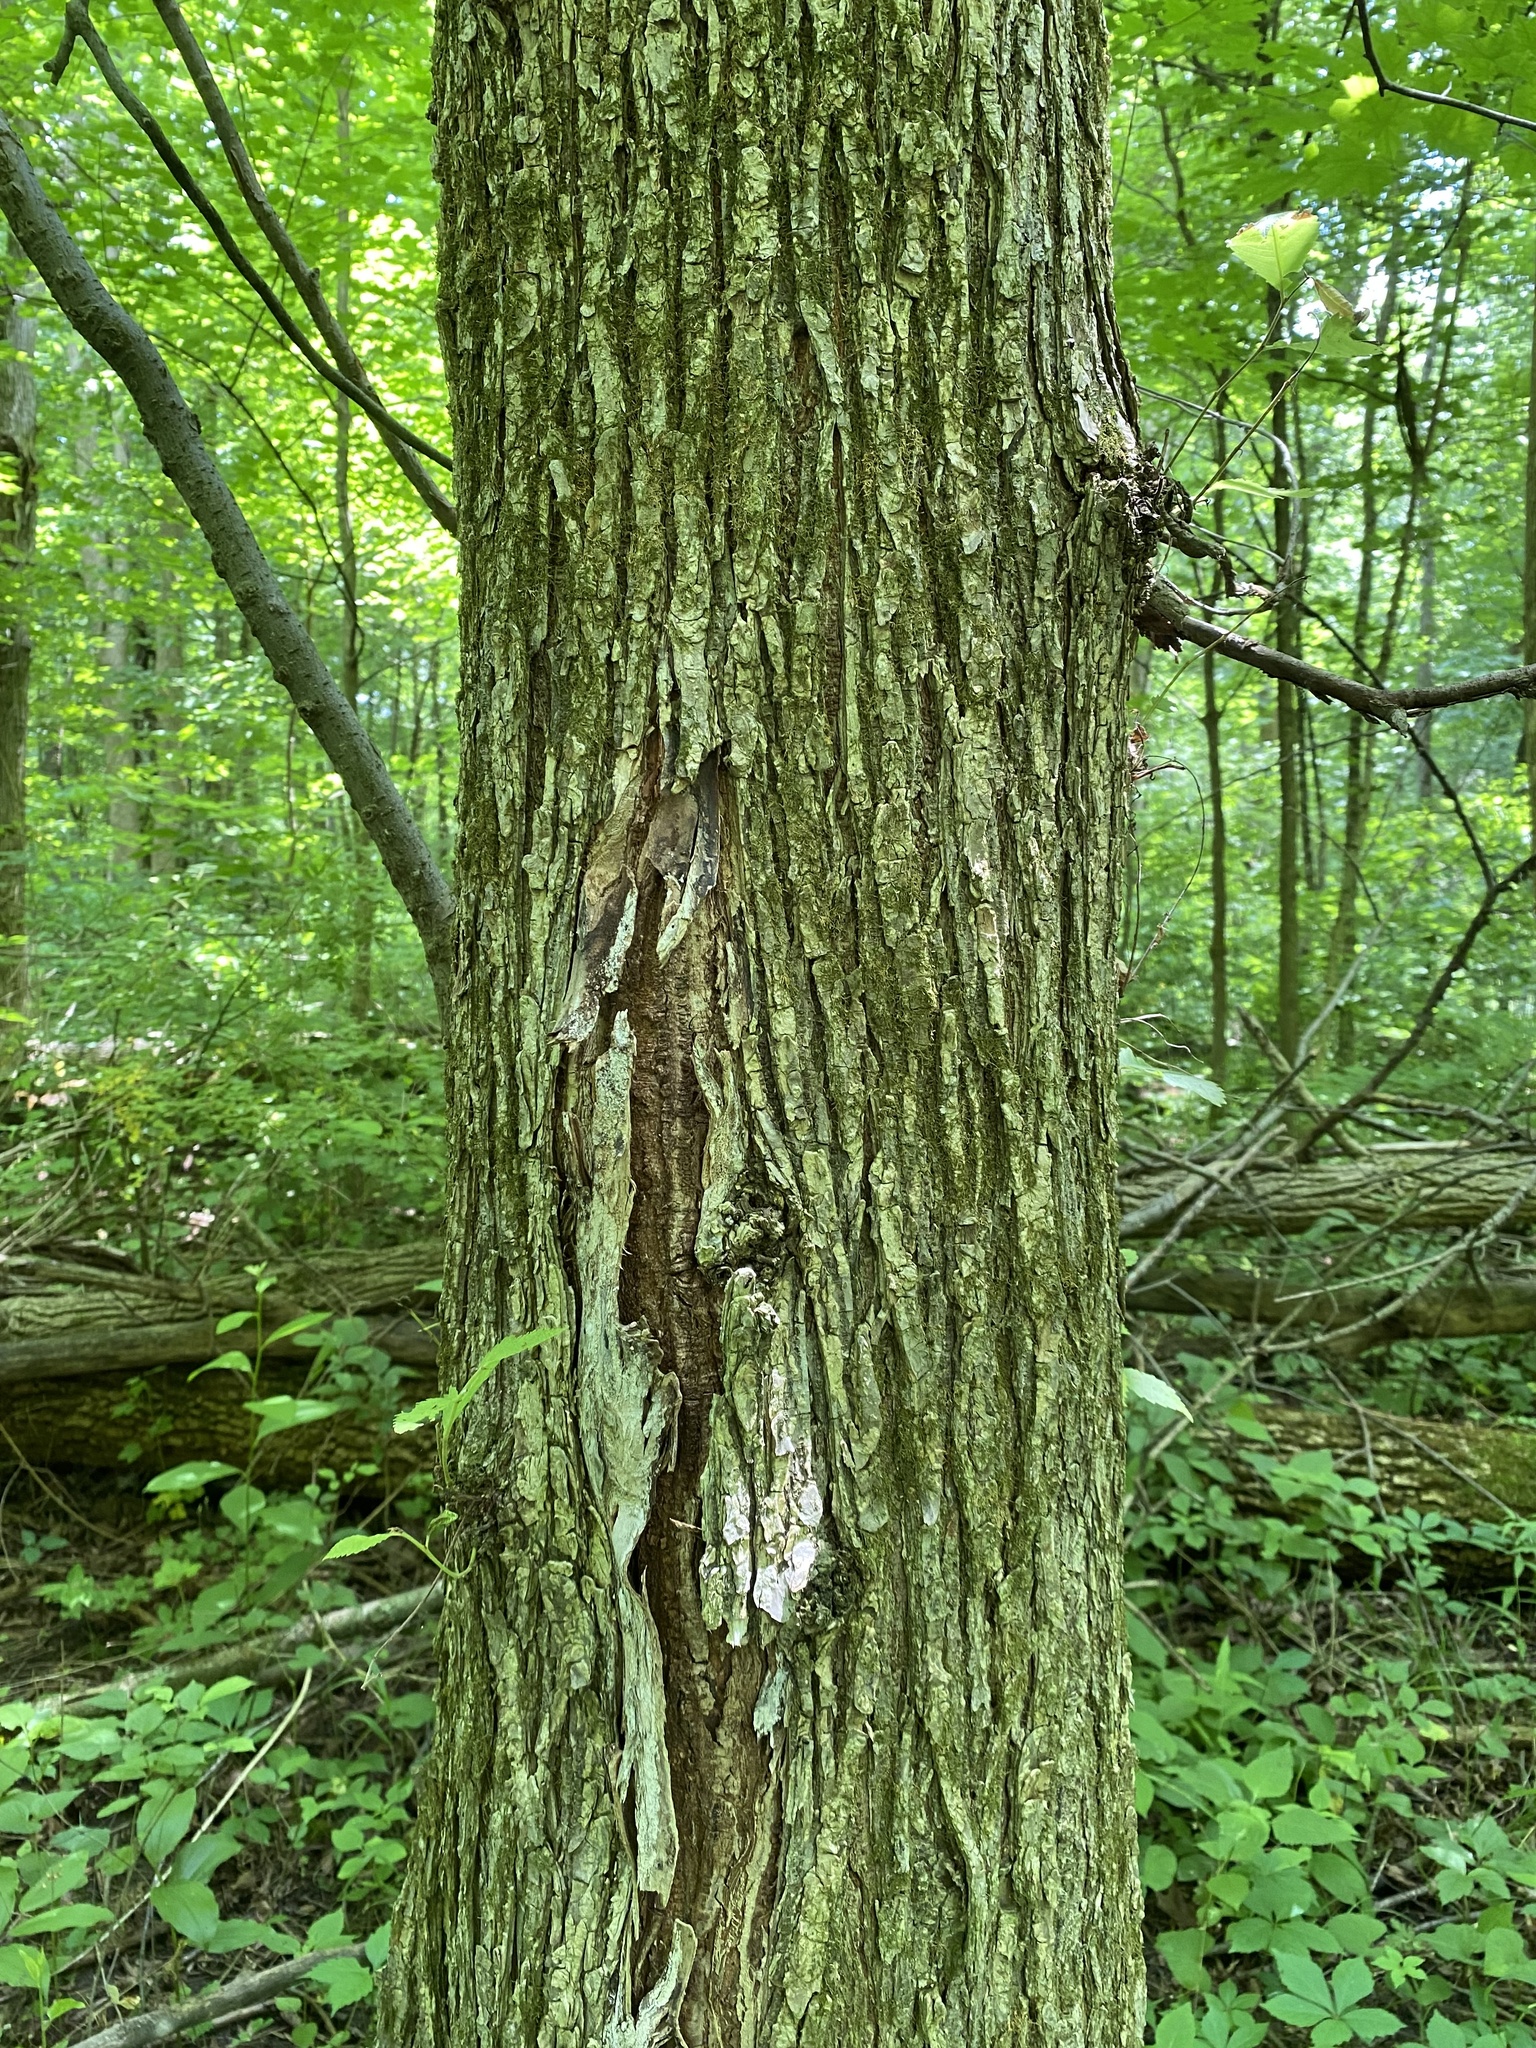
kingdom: Plantae
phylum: Tracheophyta
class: Magnoliopsida
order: Rosales
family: Ulmaceae
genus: Ulmus
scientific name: Ulmus rubra
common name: Slippery elm
